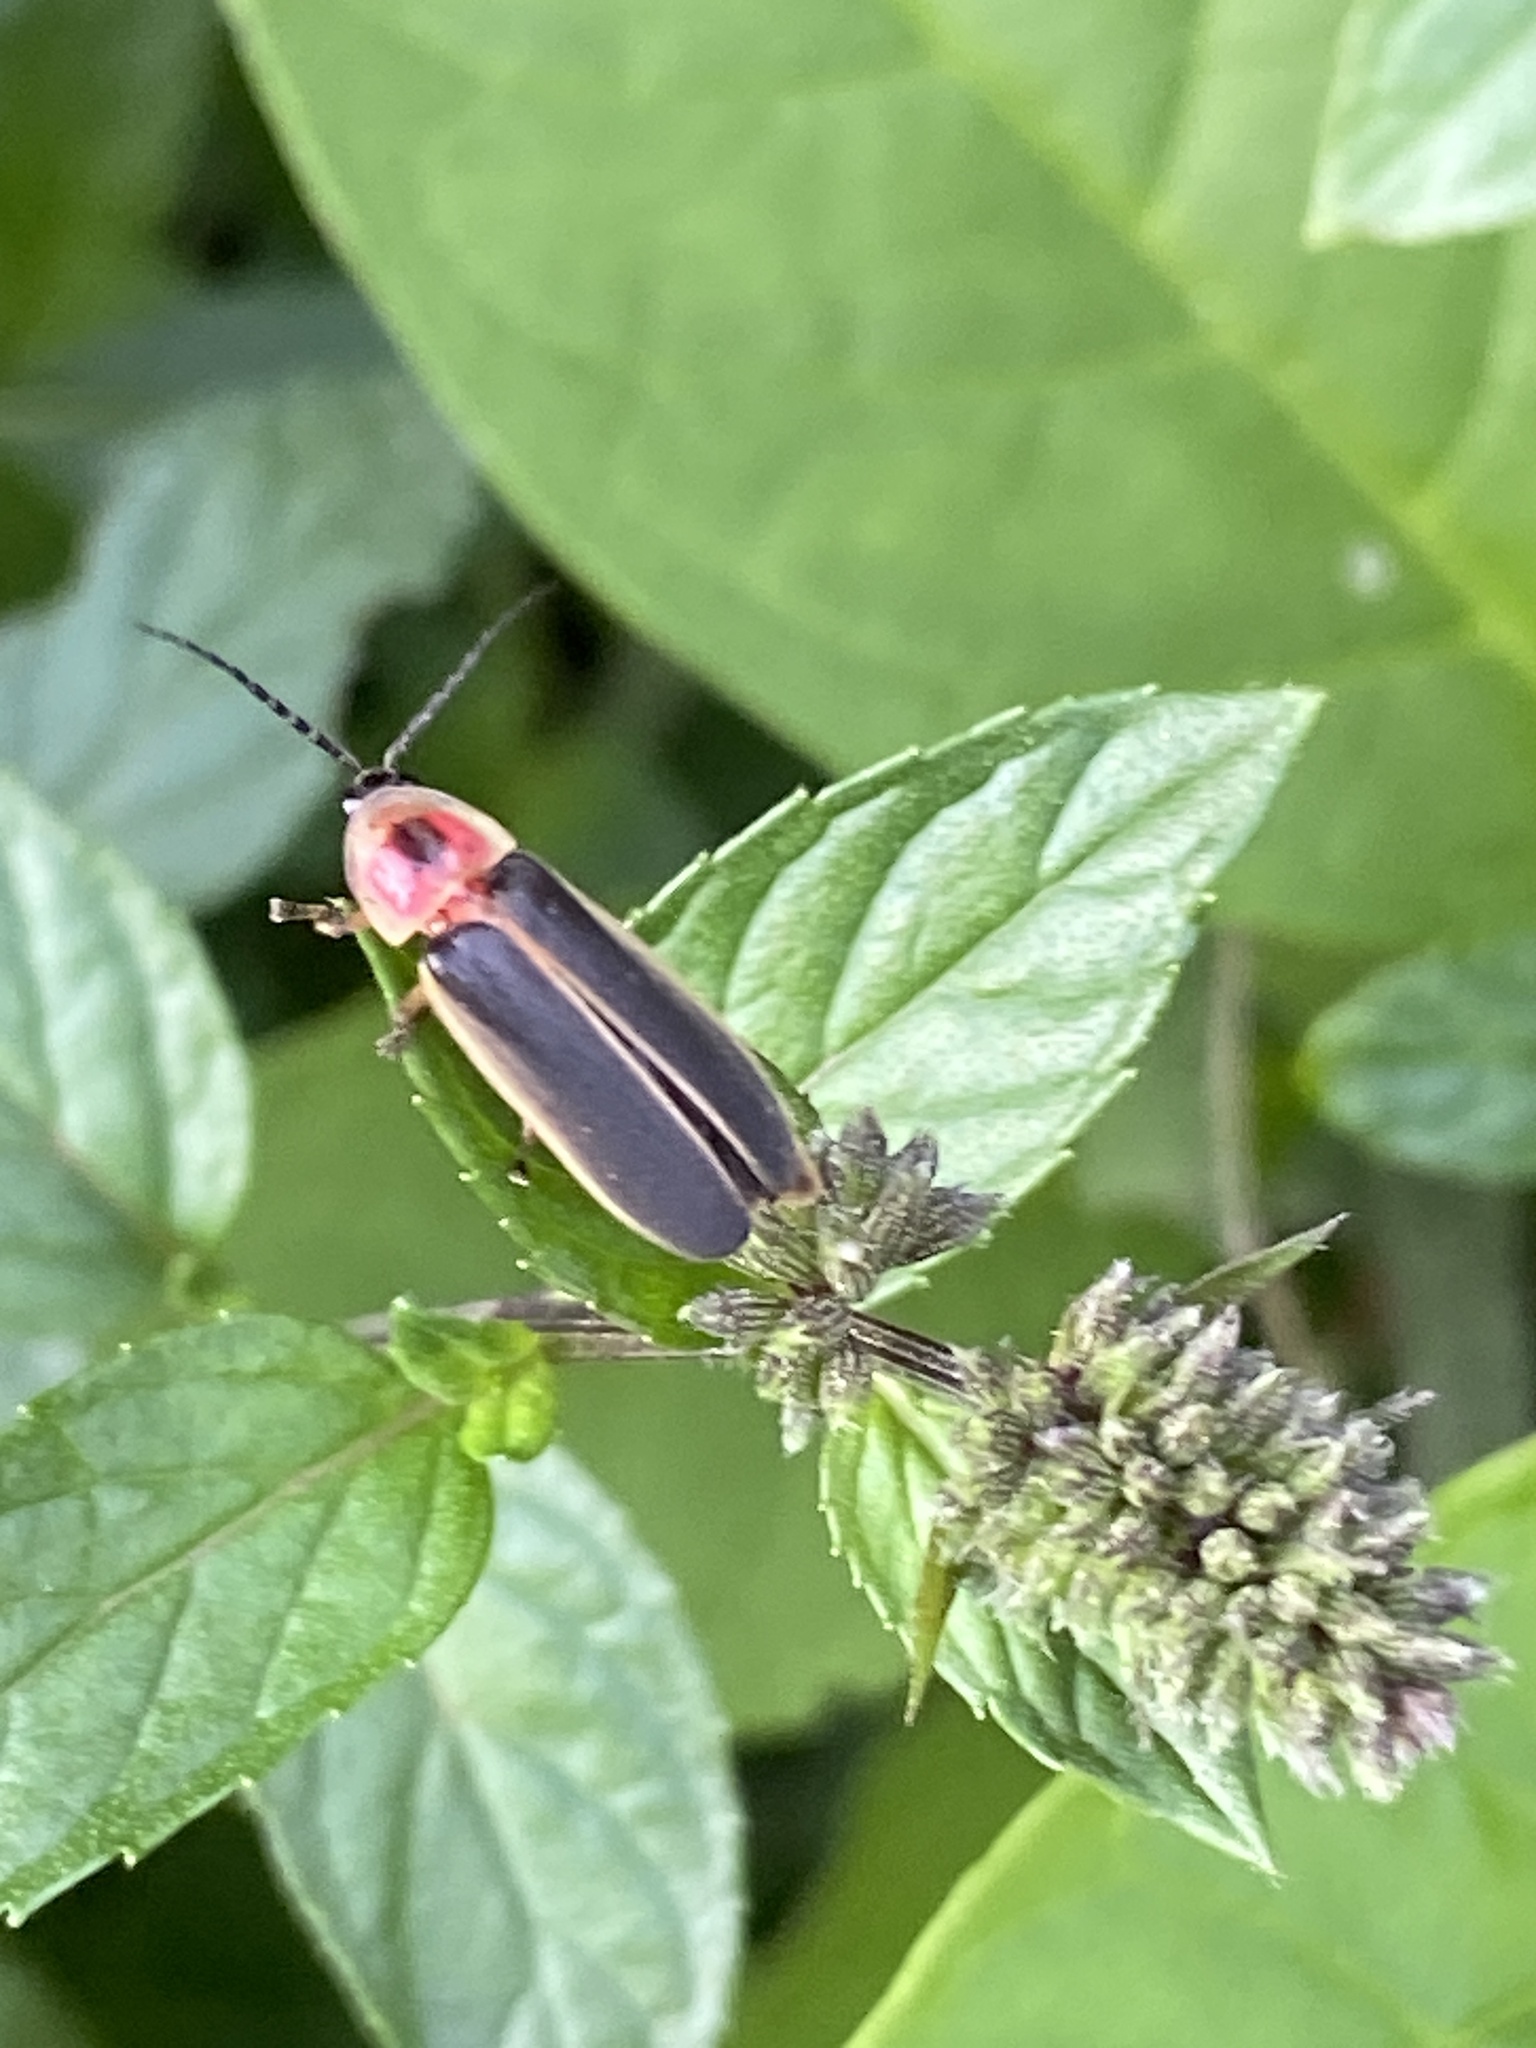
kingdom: Animalia
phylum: Arthropoda
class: Insecta
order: Coleoptera
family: Lampyridae
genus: Photinus
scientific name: Photinus pyralis
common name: Big dipper firefly
